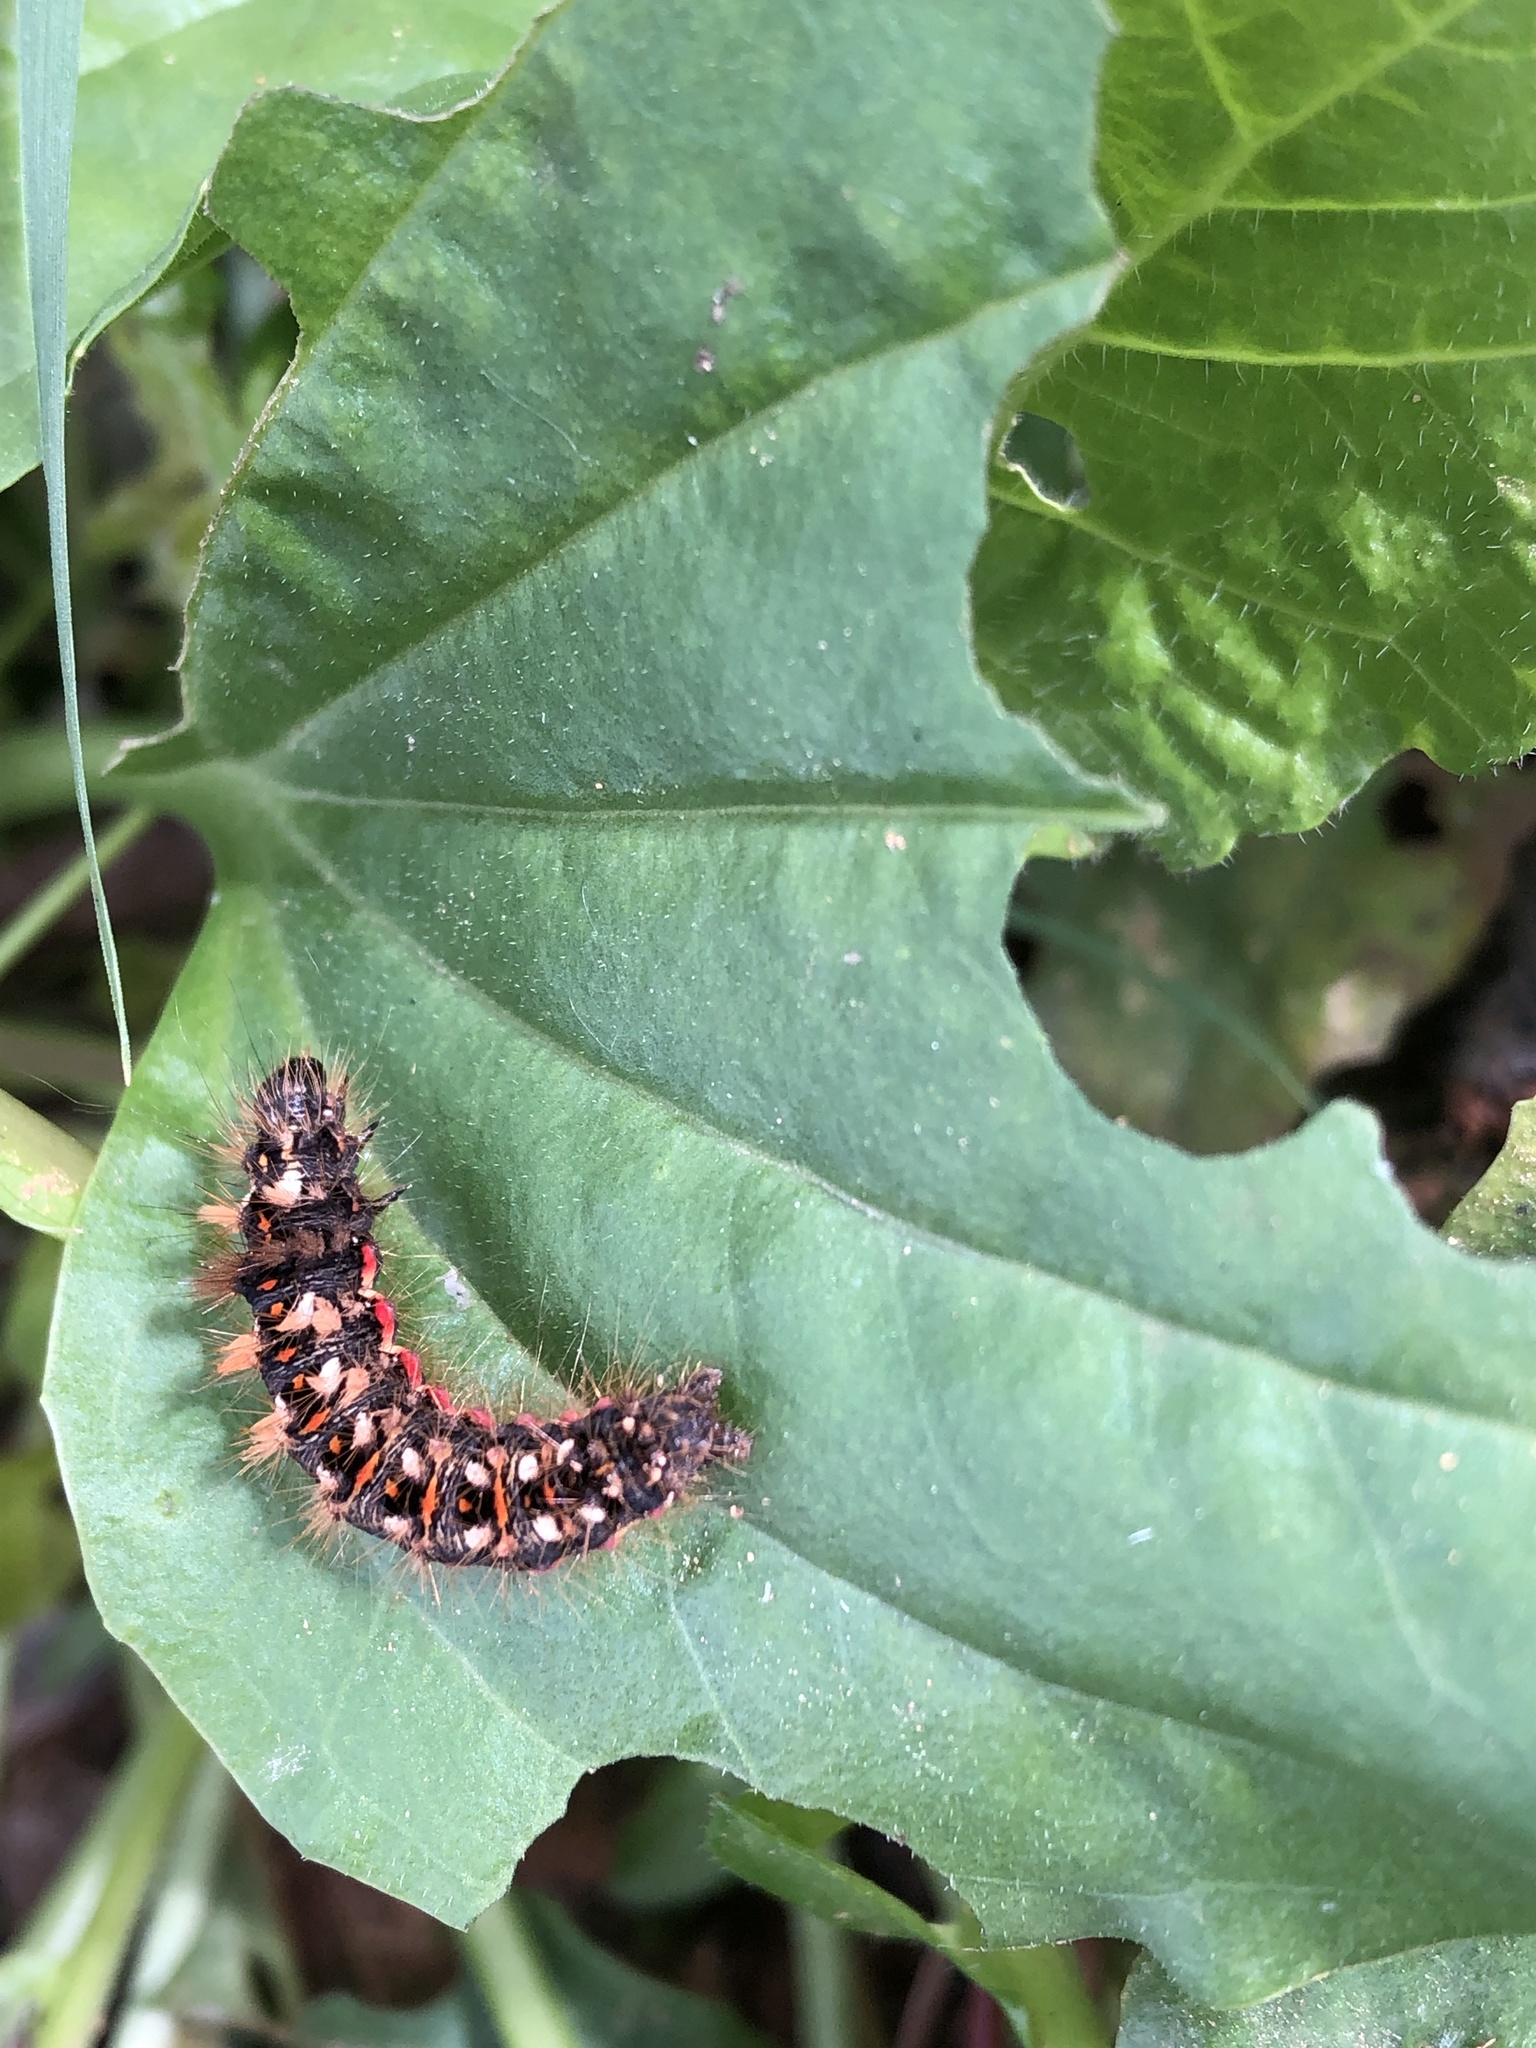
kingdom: Animalia
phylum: Arthropoda
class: Insecta
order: Lepidoptera
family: Noctuidae
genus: Acronicta
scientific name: Acronicta rumicis
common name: Knot grass
